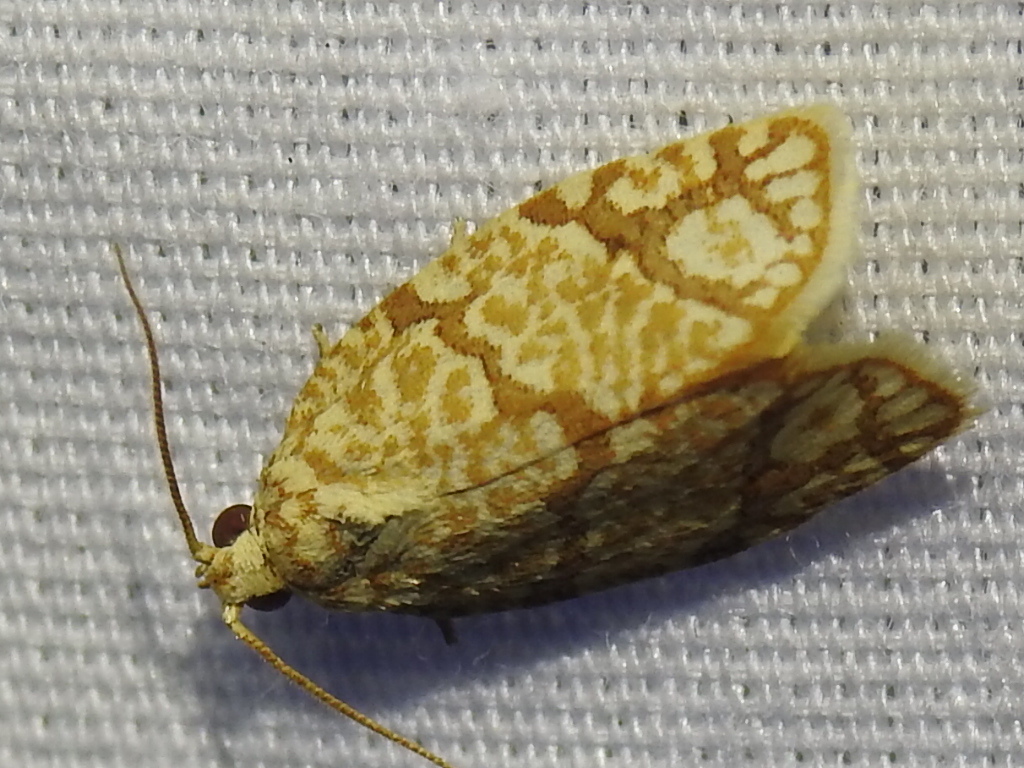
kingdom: Animalia
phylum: Arthropoda
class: Insecta
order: Lepidoptera
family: Tortricidae
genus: Argyrotaenia
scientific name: Argyrotaenia quercifoliana
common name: Yellow-winged oak leafroller moth
